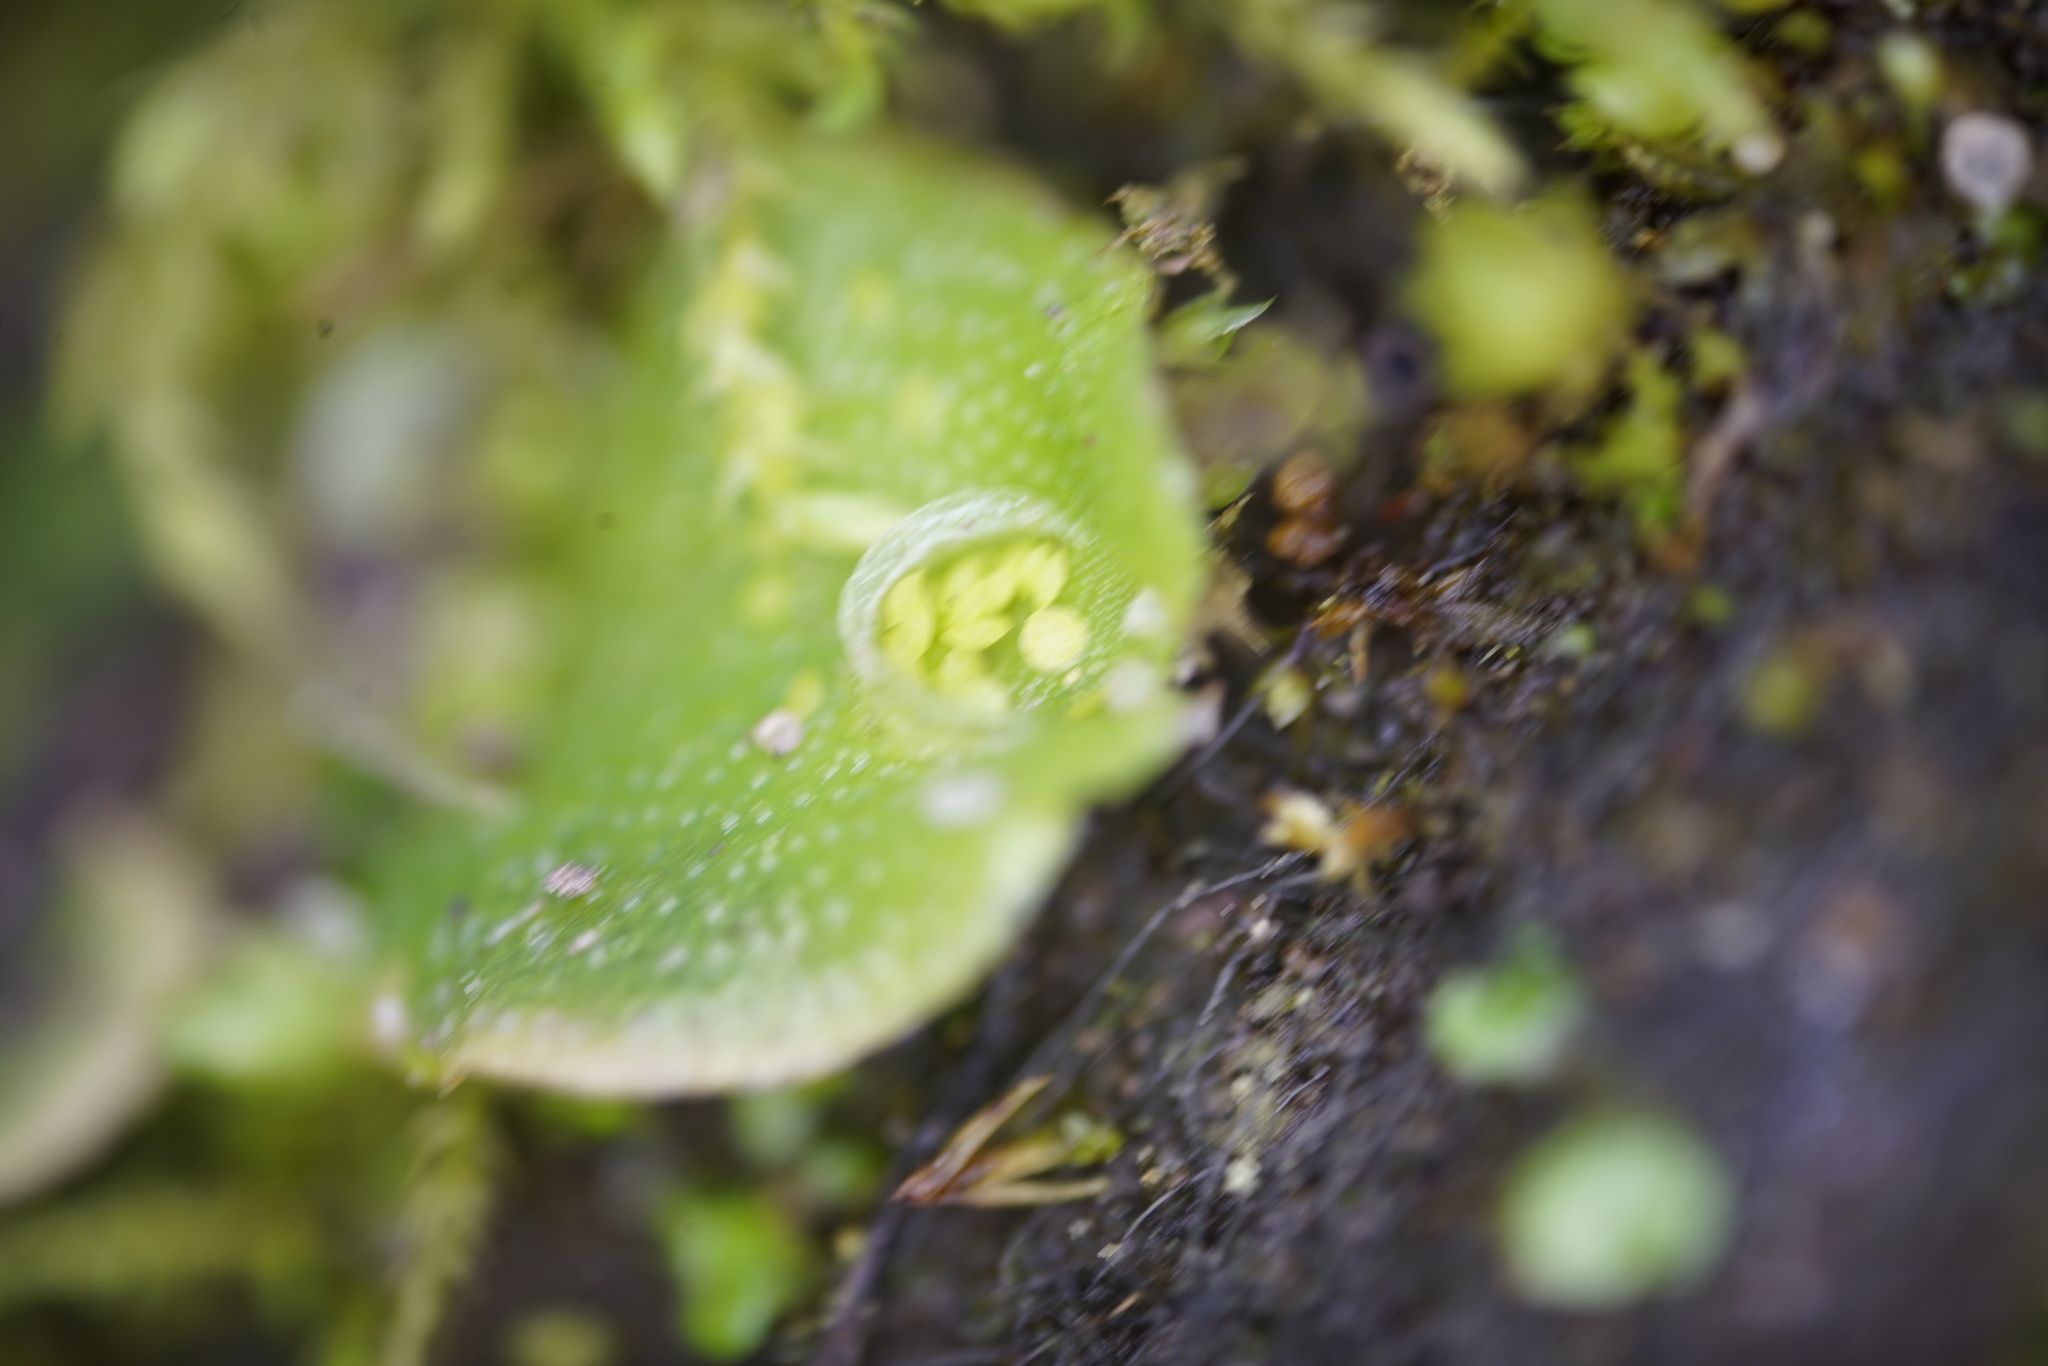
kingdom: Plantae
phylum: Marchantiophyta
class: Marchantiopsida
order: Lunulariales
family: Lunulariaceae
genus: Lunularia
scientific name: Lunularia cruciata
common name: Crescent-cup liverwort
